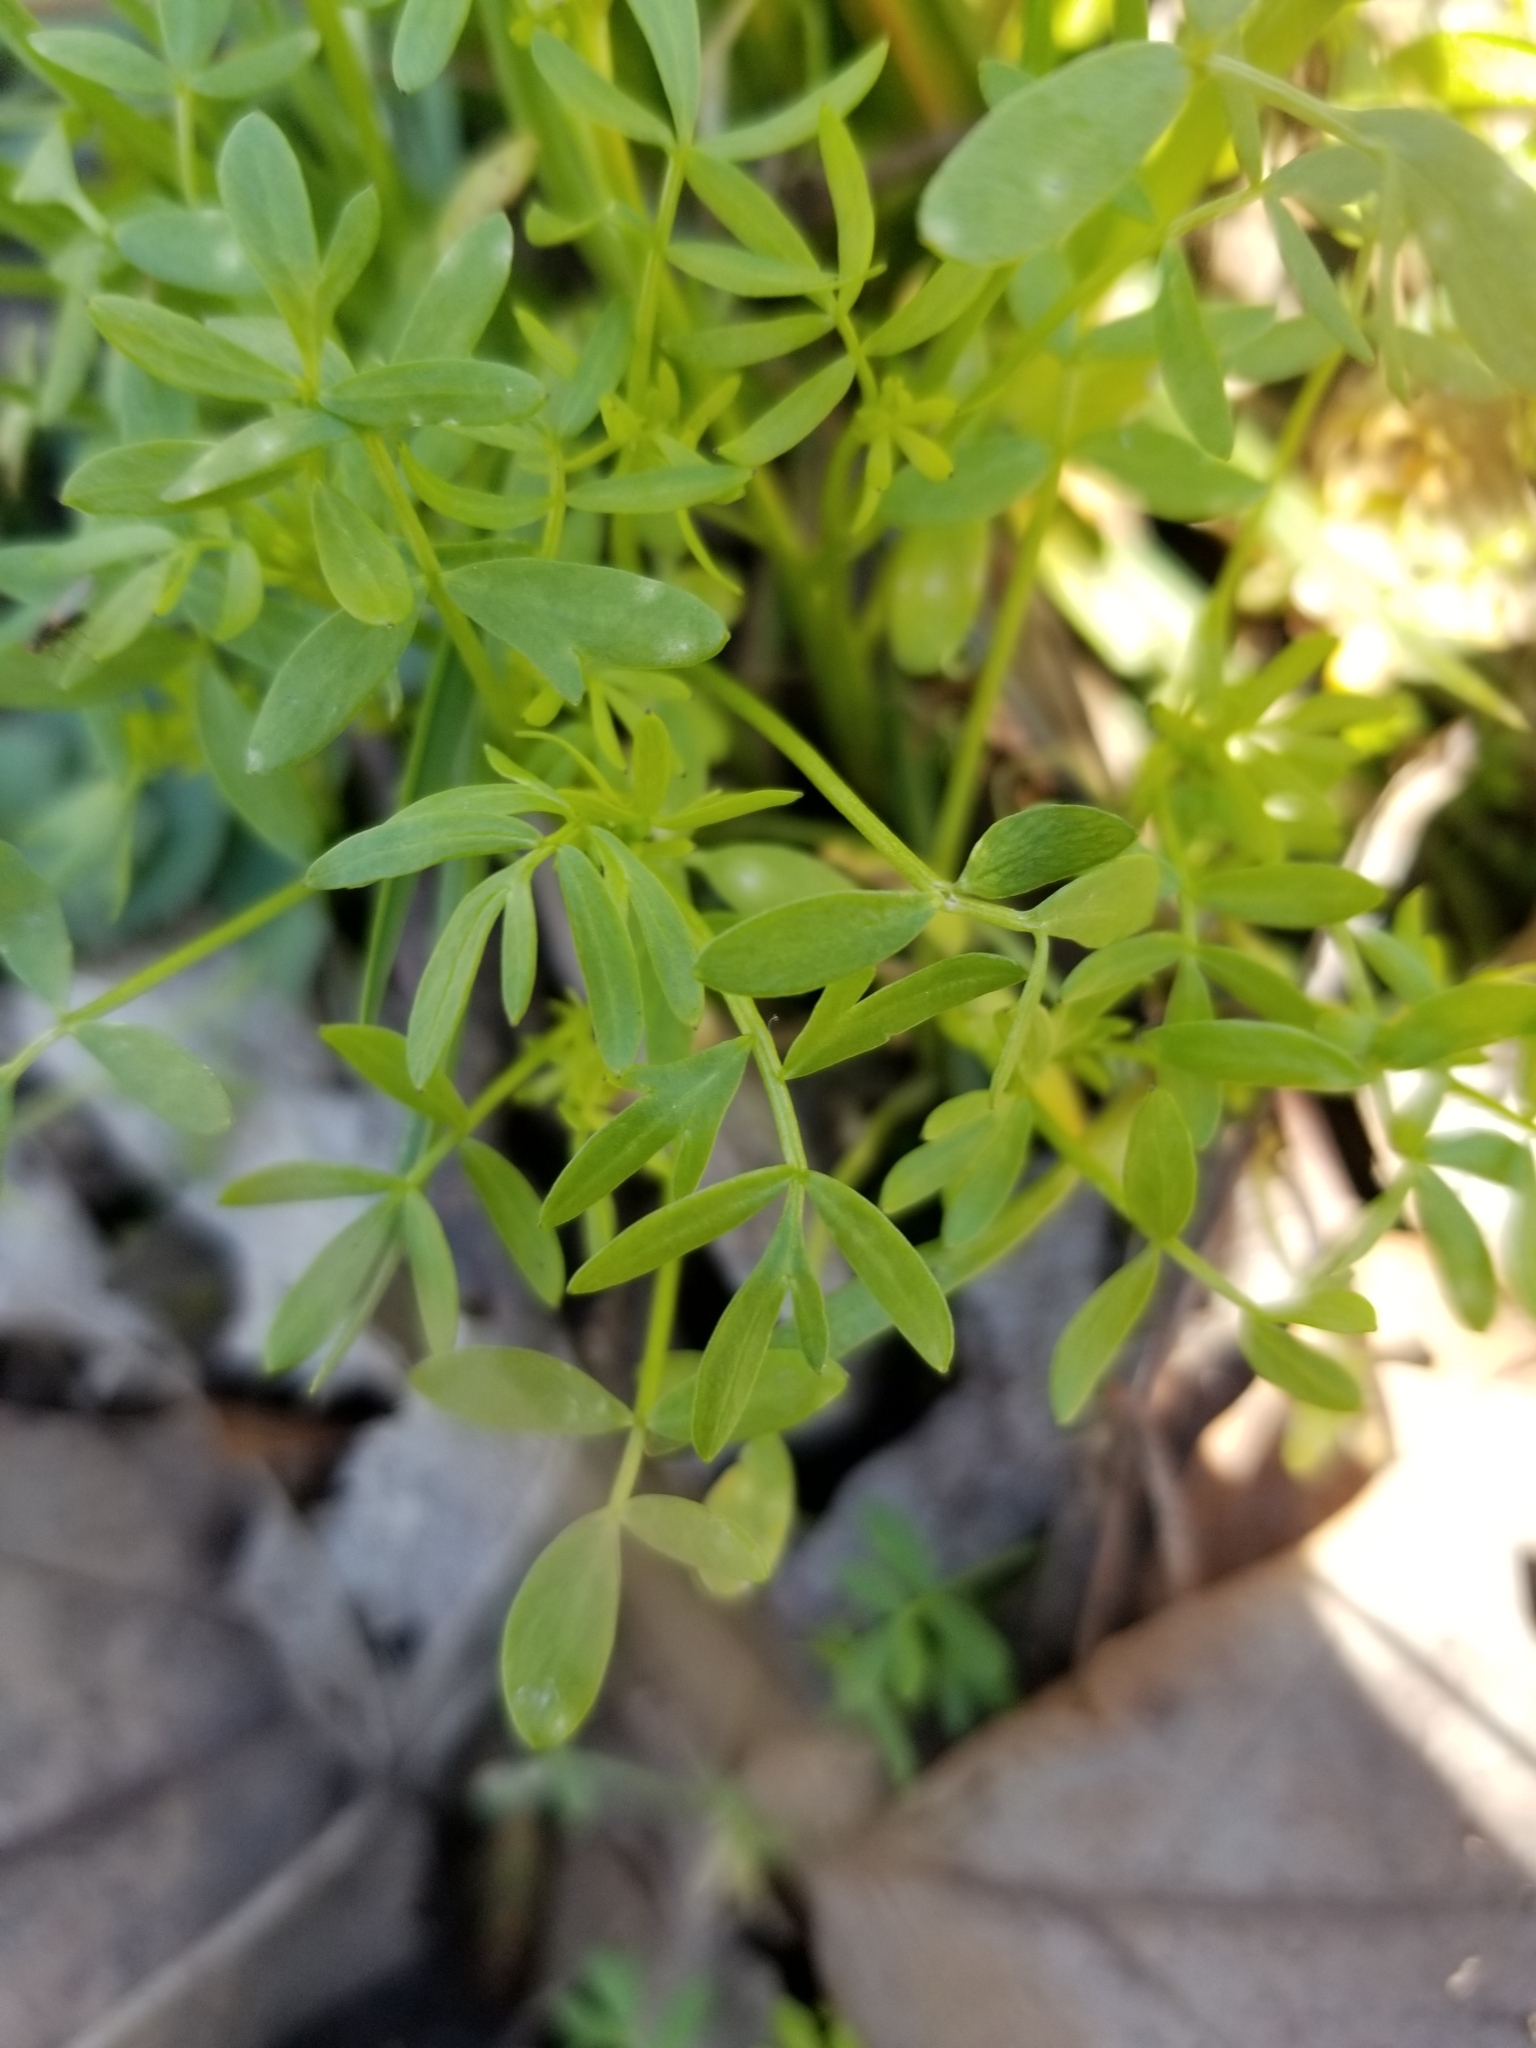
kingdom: Plantae
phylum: Tracheophyta
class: Magnoliopsida
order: Brassicales
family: Limnanthaceae
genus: Floerkea
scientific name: Floerkea proserpinacoides
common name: False mermaid
